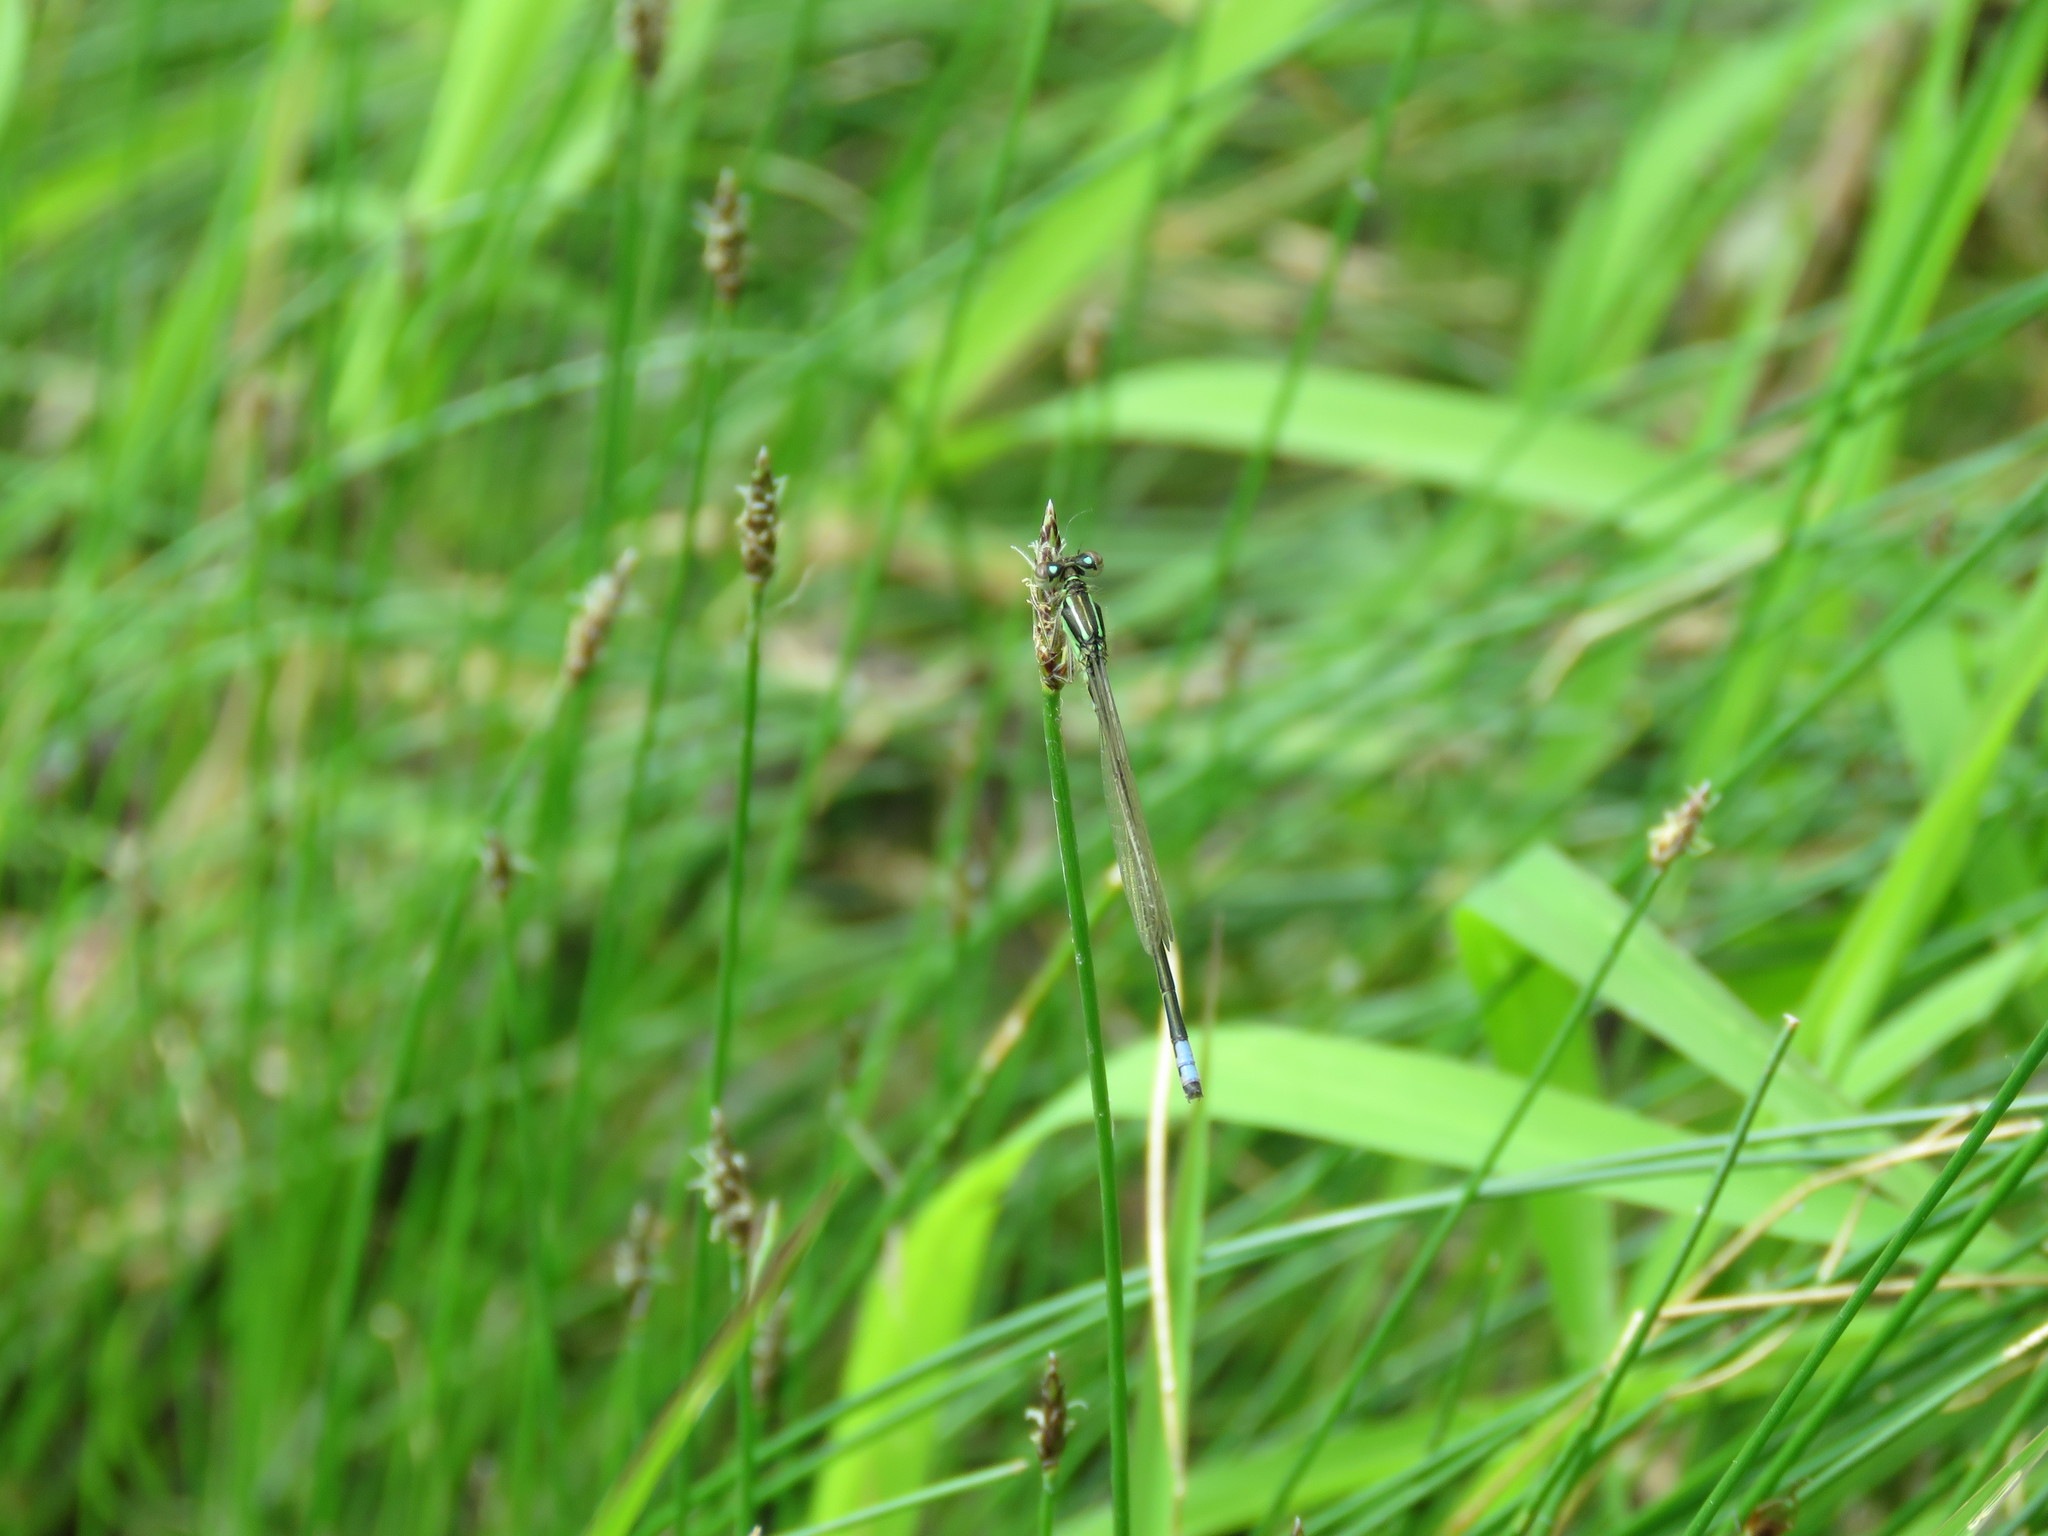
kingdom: Animalia
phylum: Arthropoda
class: Insecta
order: Odonata
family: Coenagrionidae
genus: Ischnura
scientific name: Ischnura verticalis
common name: Eastern forktail
